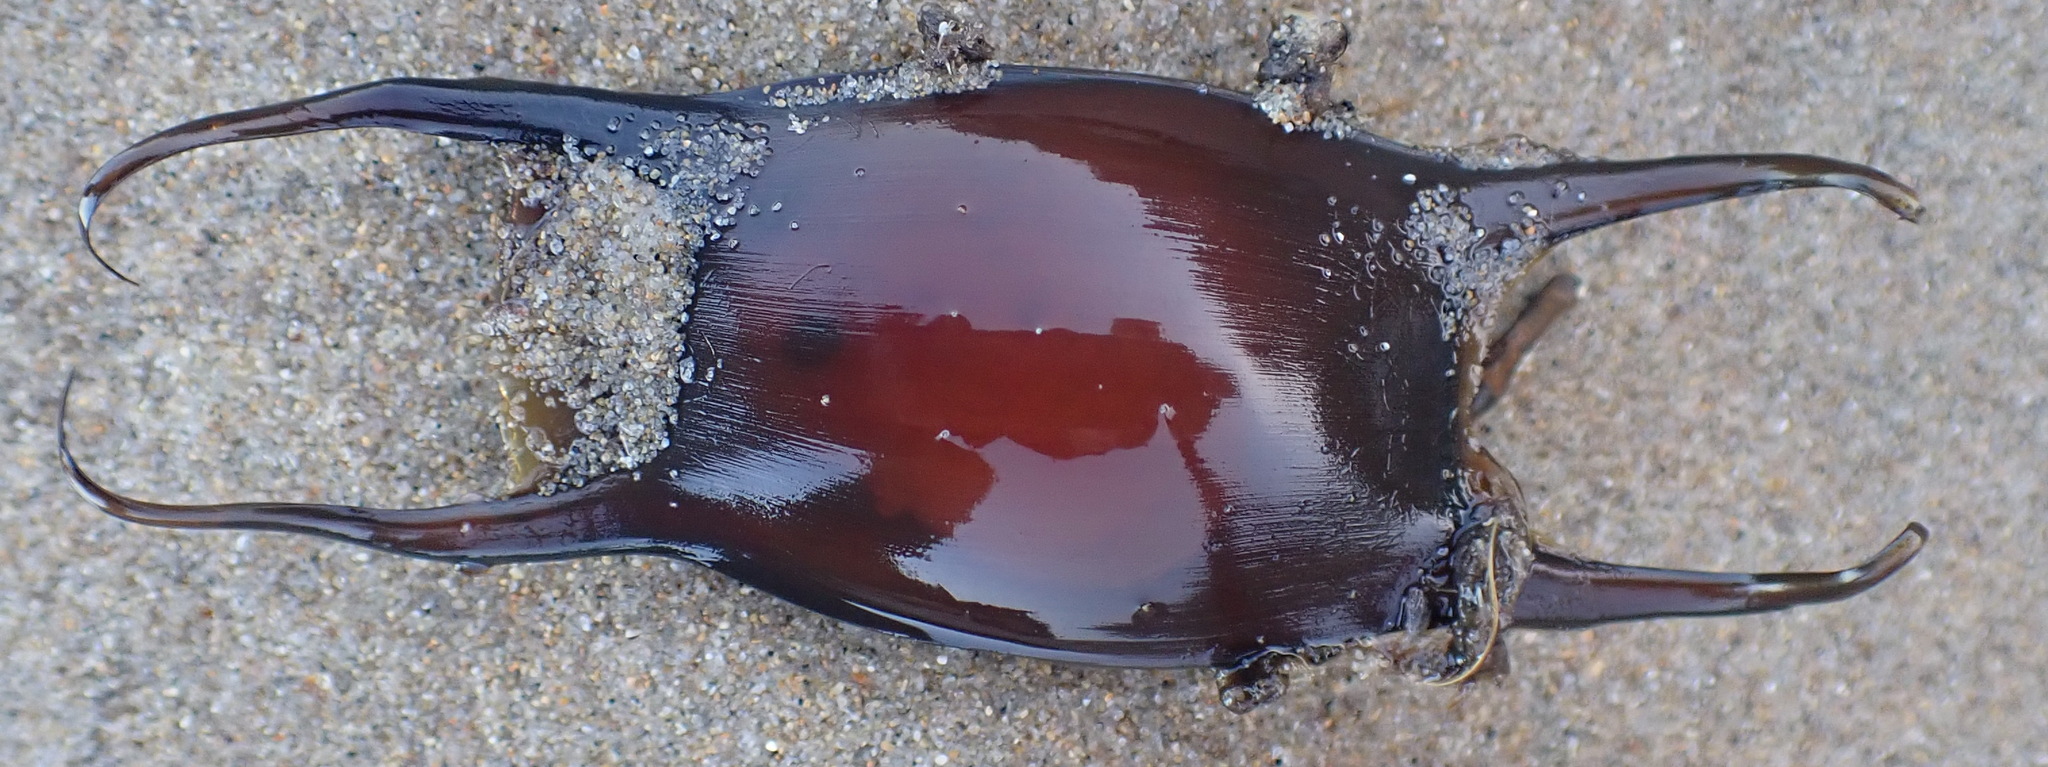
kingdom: Animalia
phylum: Chordata
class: Elasmobranchii
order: Rajiformes
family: Rajidae
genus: Raja
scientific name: Raja ocellifera
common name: Twineye skate
